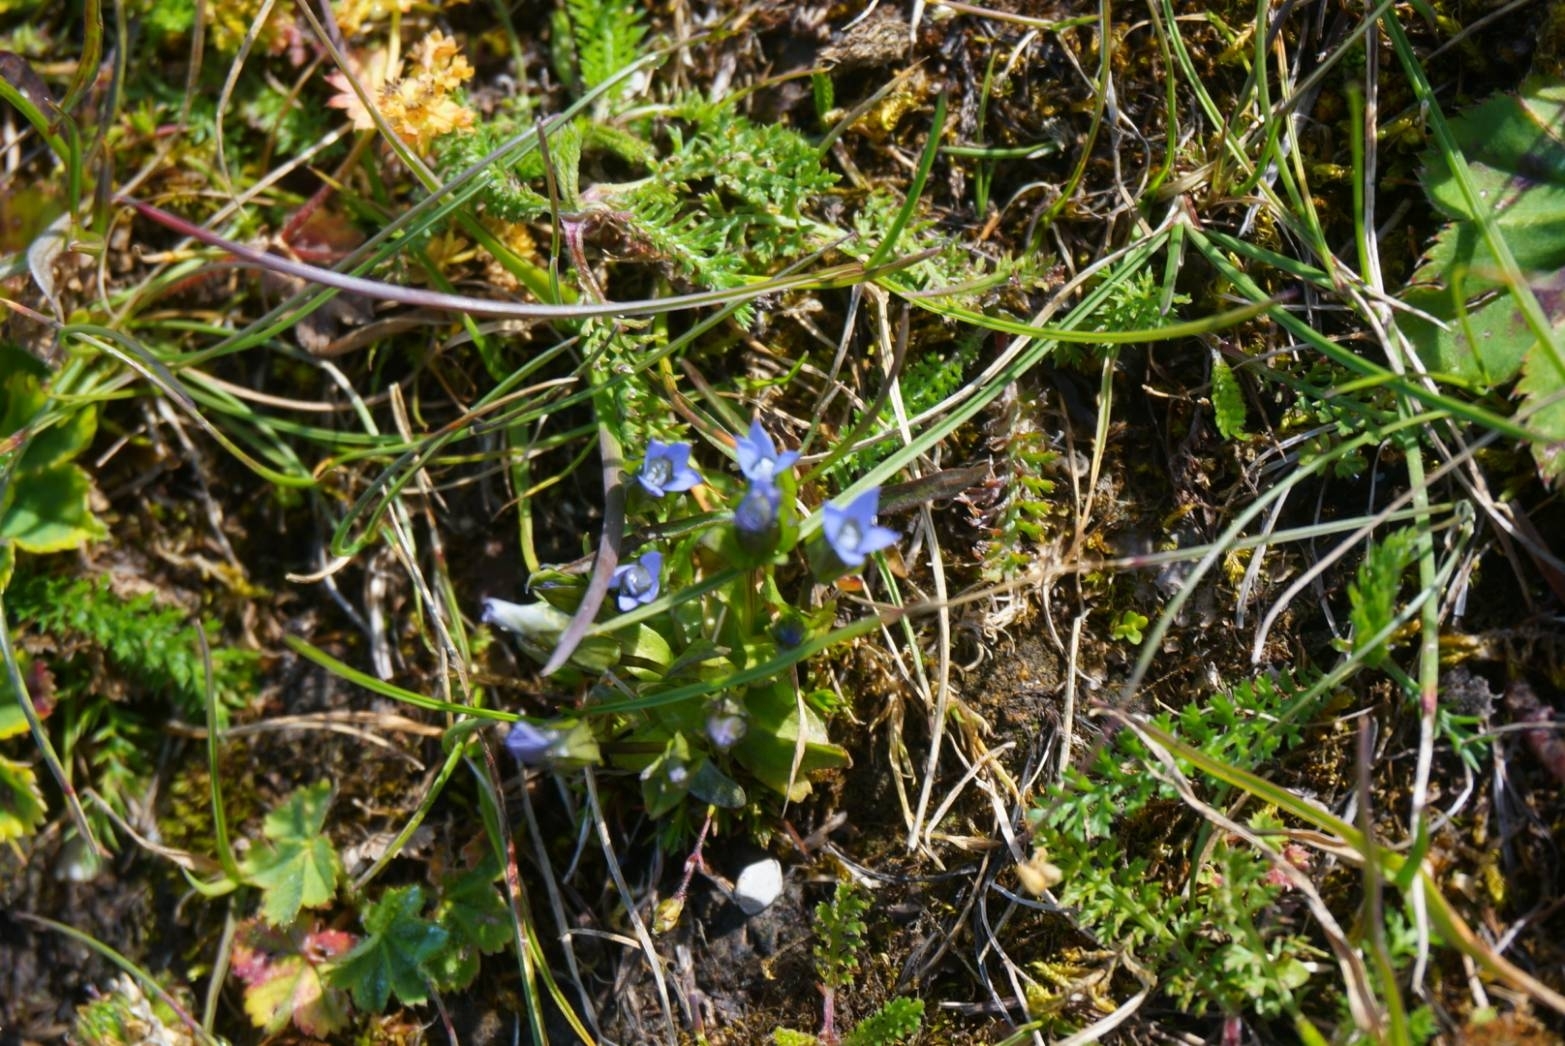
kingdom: Plantae
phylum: Tracheophyta
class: Magnoliopsida
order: Gentianales
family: Gentianaceae
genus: Comastoma
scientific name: Comastoma tenellum
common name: Dane's dwarf gentian
